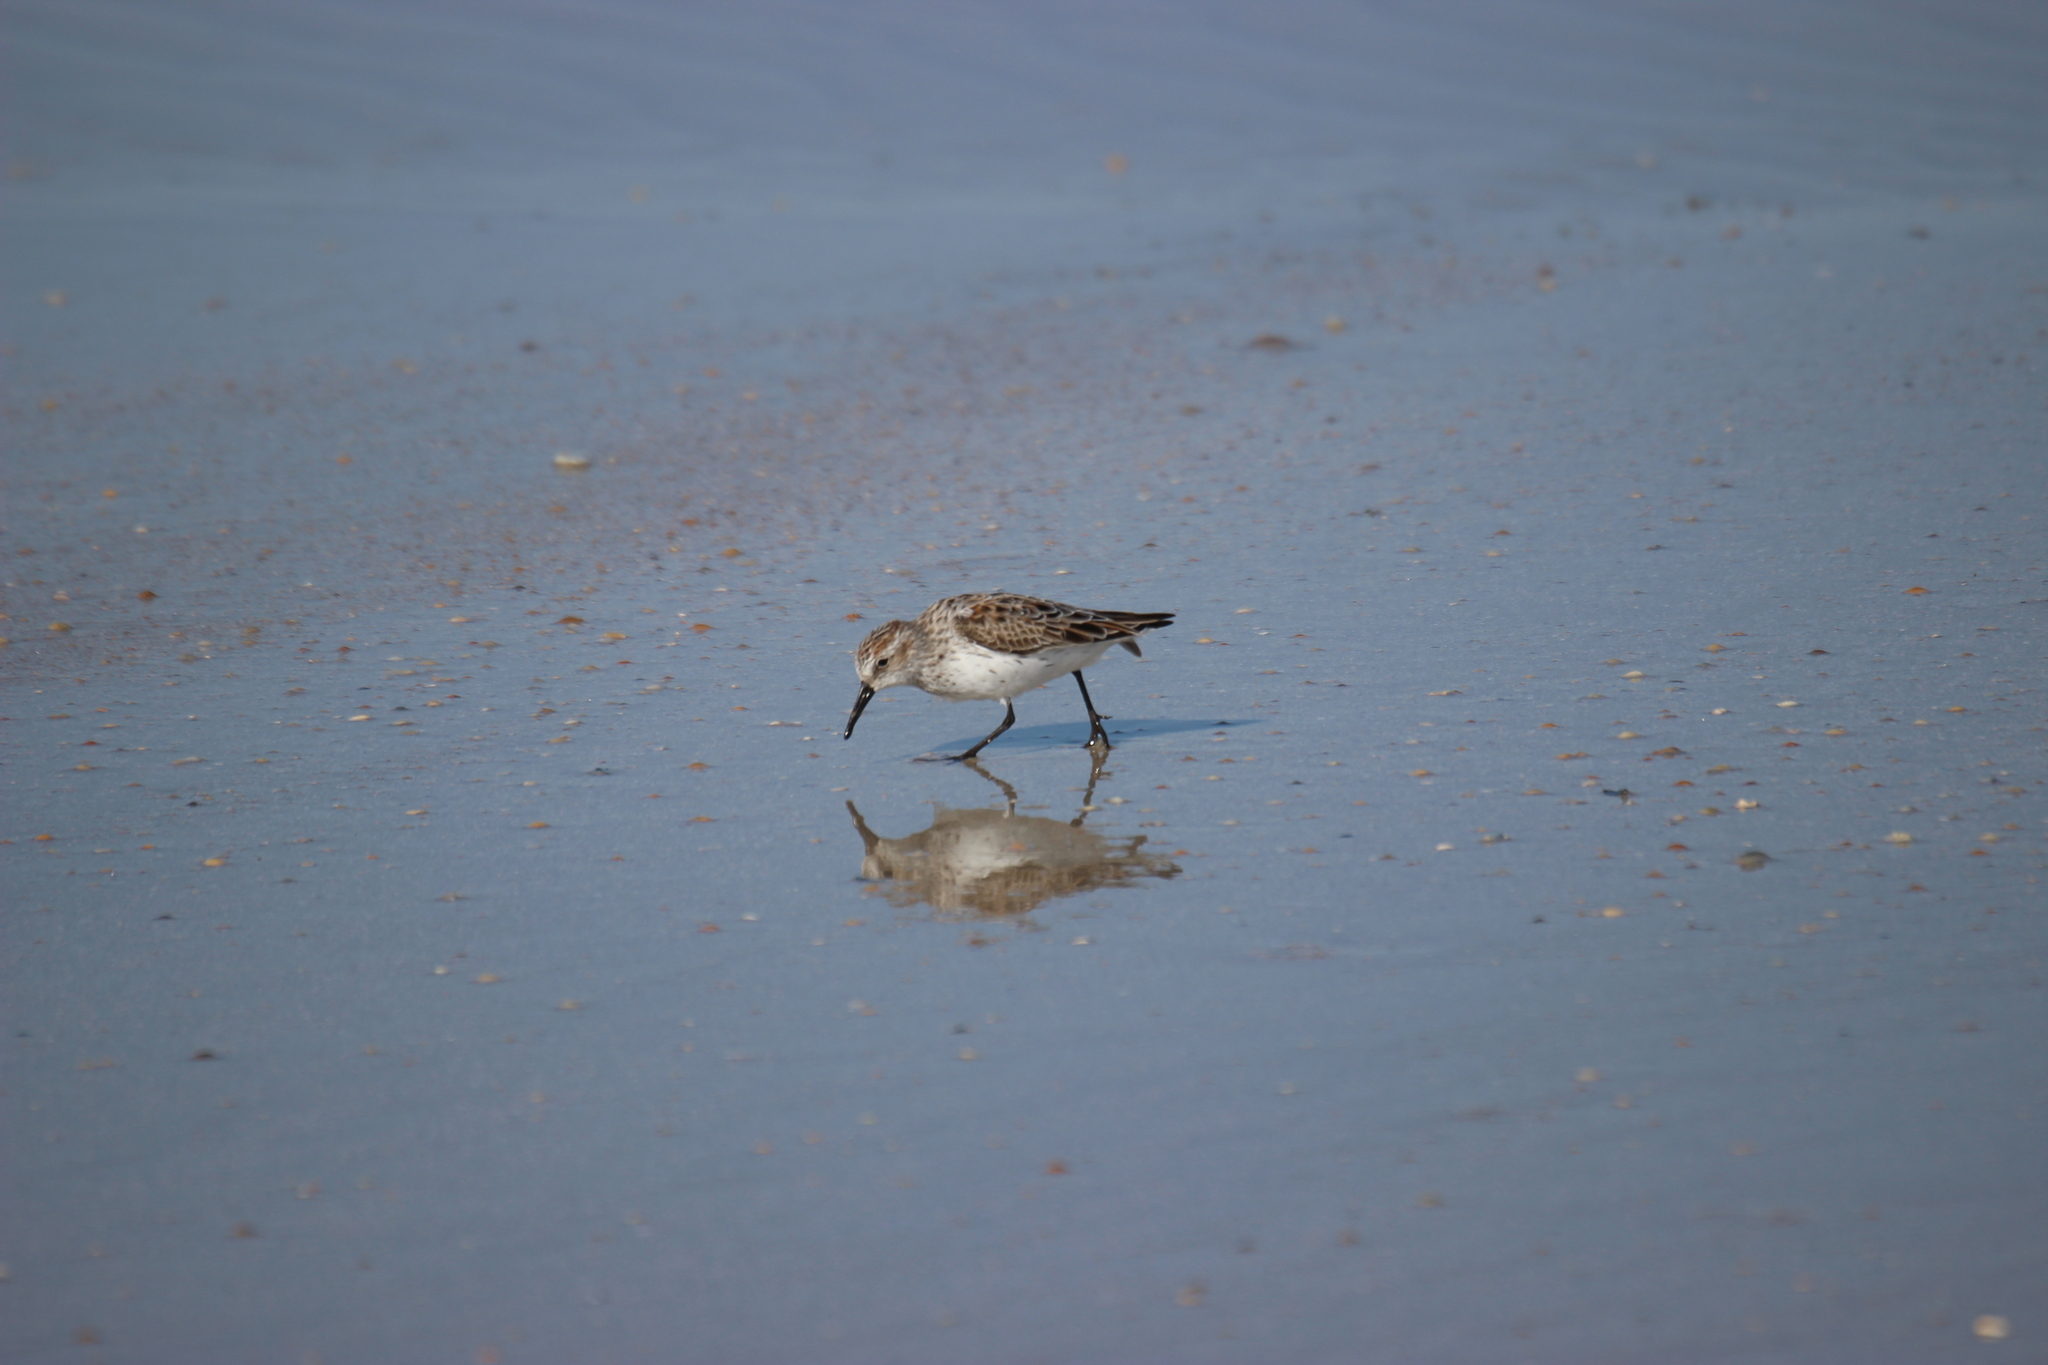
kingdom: Animalia
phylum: Chordata
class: Aves
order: Charadriiformes
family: Scolopacidae
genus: Calidris
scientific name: Calidris mauri
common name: Western sandpiper
